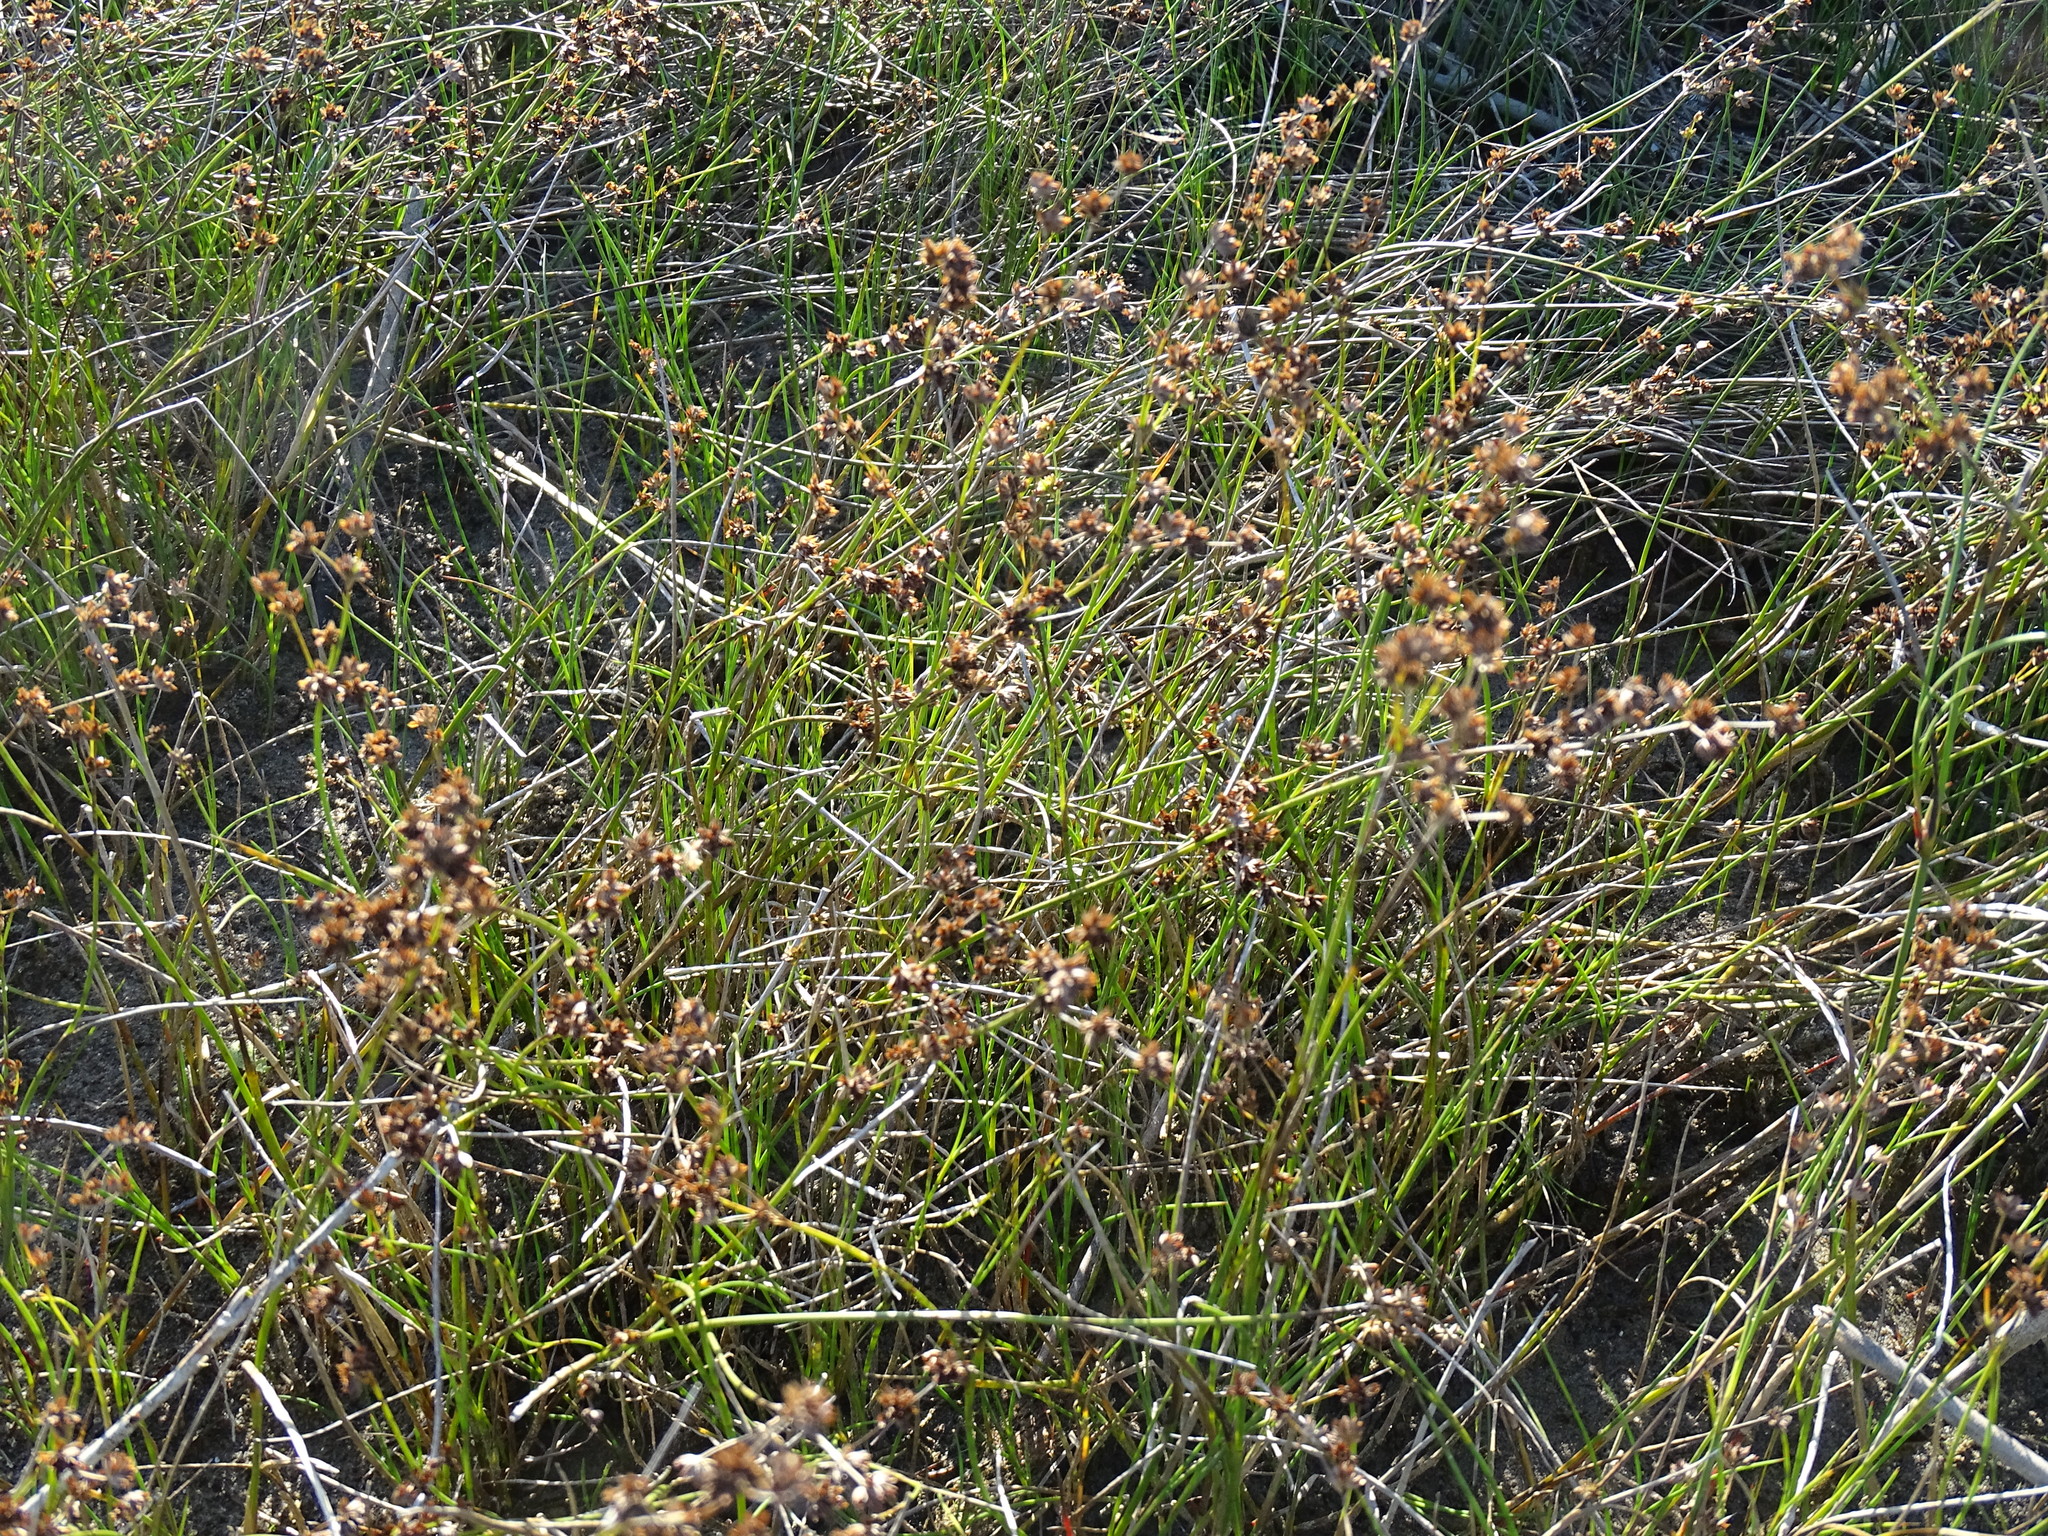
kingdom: Plantae
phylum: Tracheophyta
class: Liliopsida
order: Poales
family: Juncaceae
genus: Juncus
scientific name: Juncus articulatus
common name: Jointed rush
